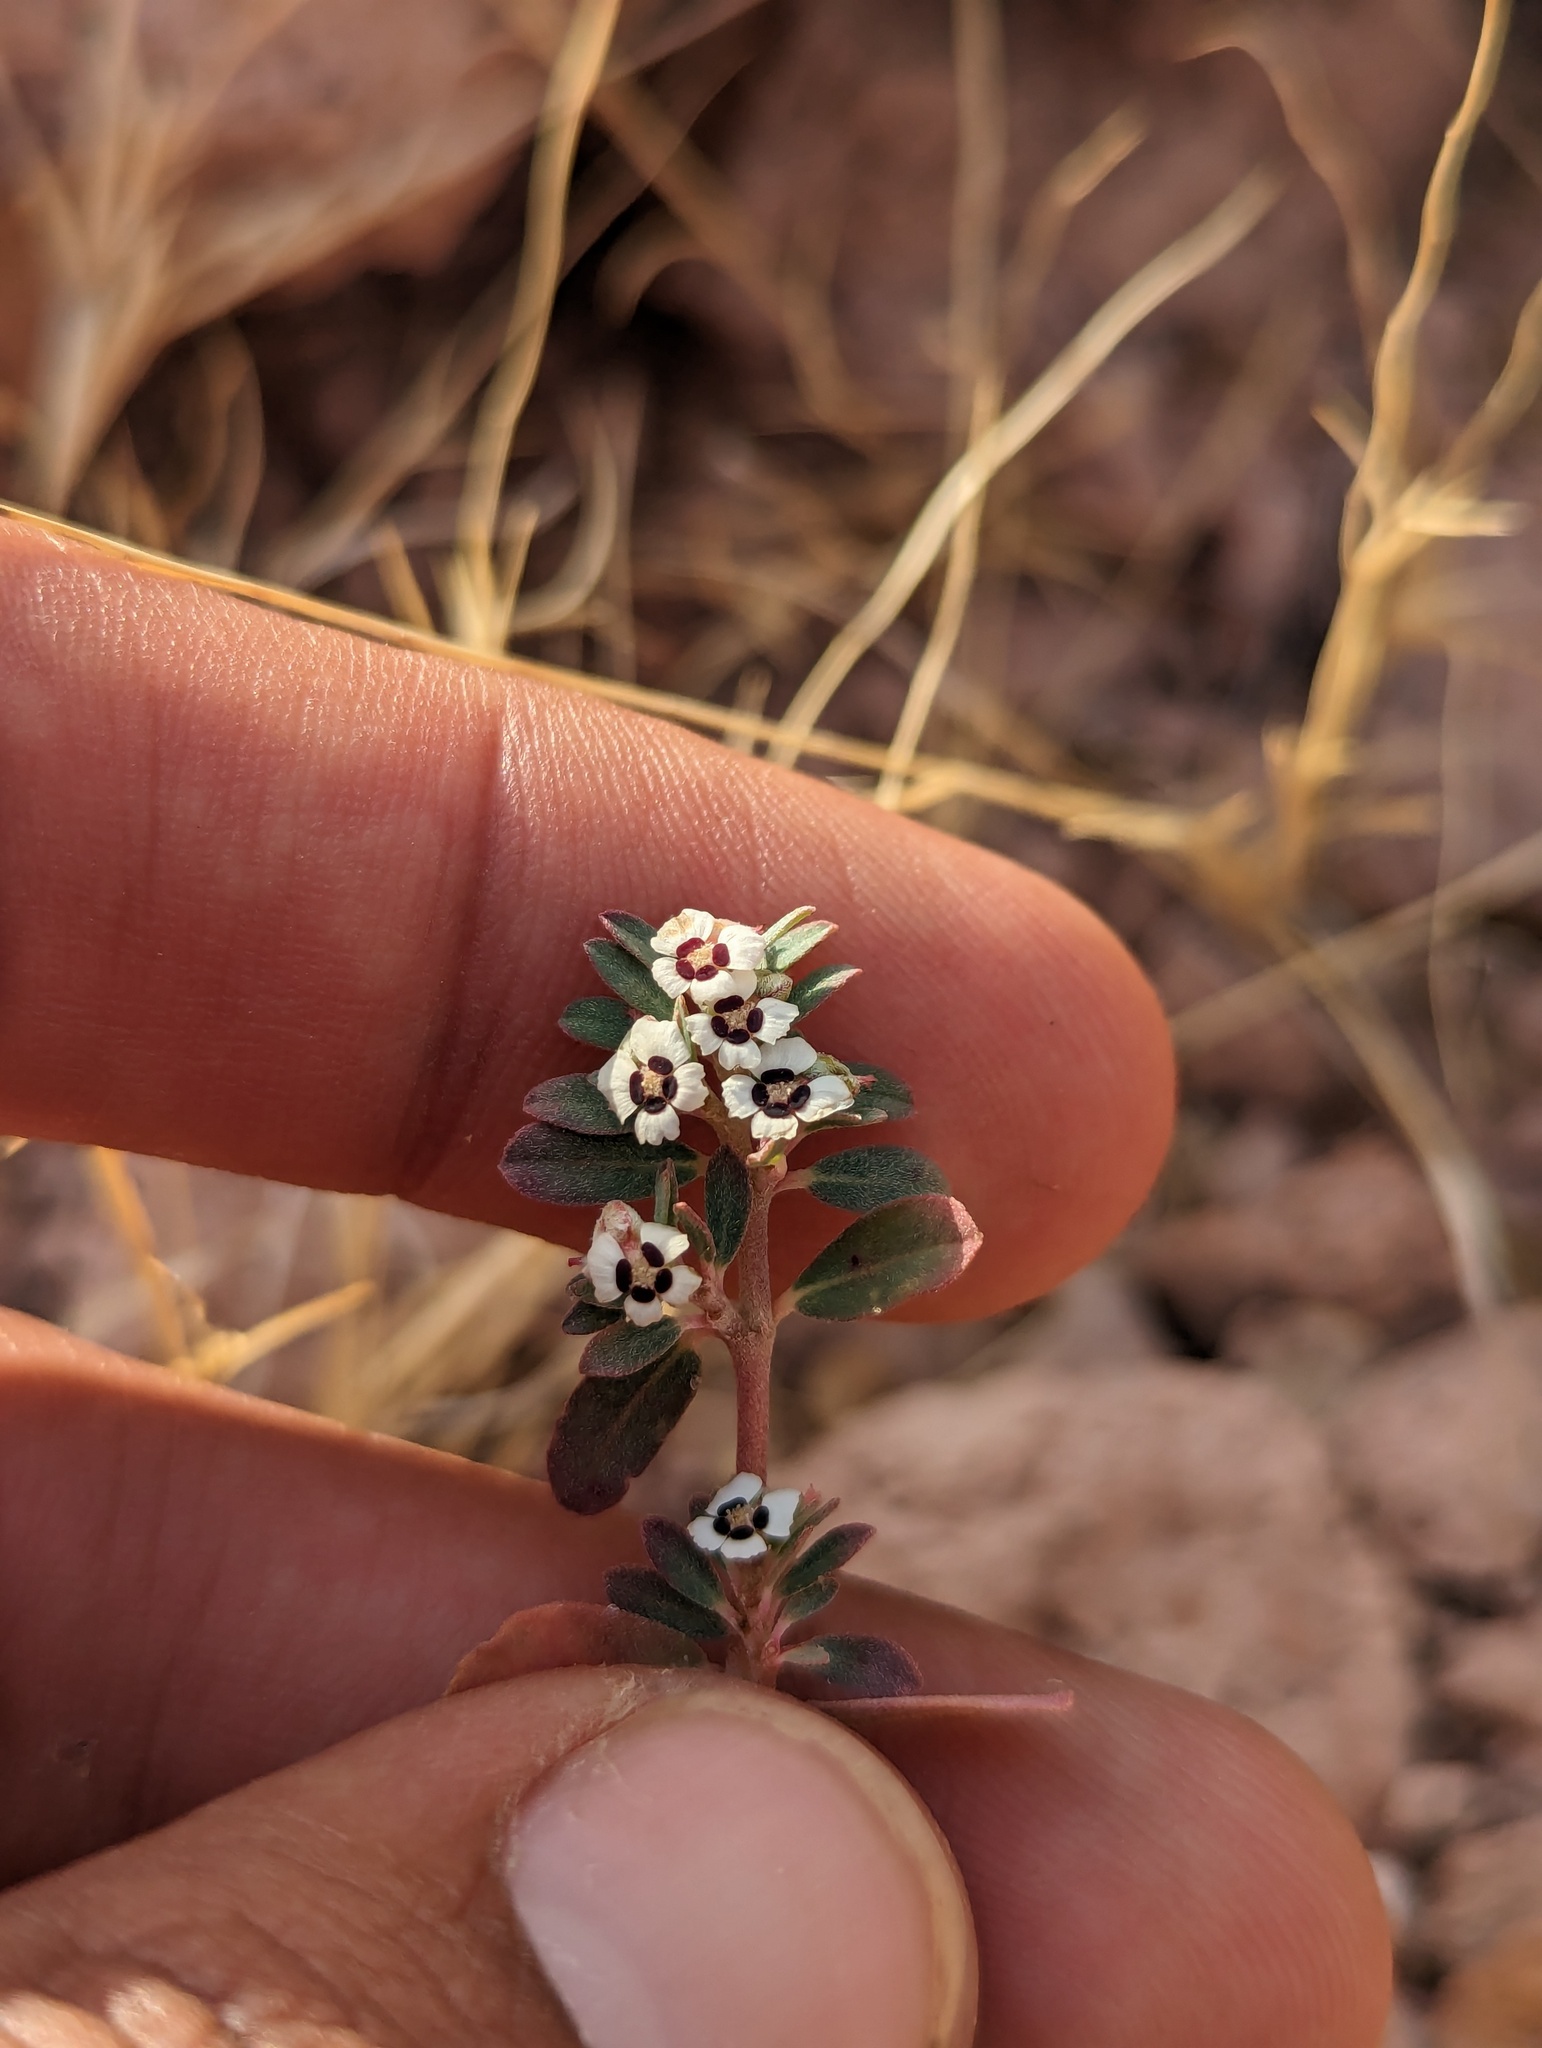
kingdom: Plantae
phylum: Tracheophyta
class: Magnoliopsida
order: Malpighiales
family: Euphorbiaceae
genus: Euphorbia
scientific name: Euphorbia pediculifera
